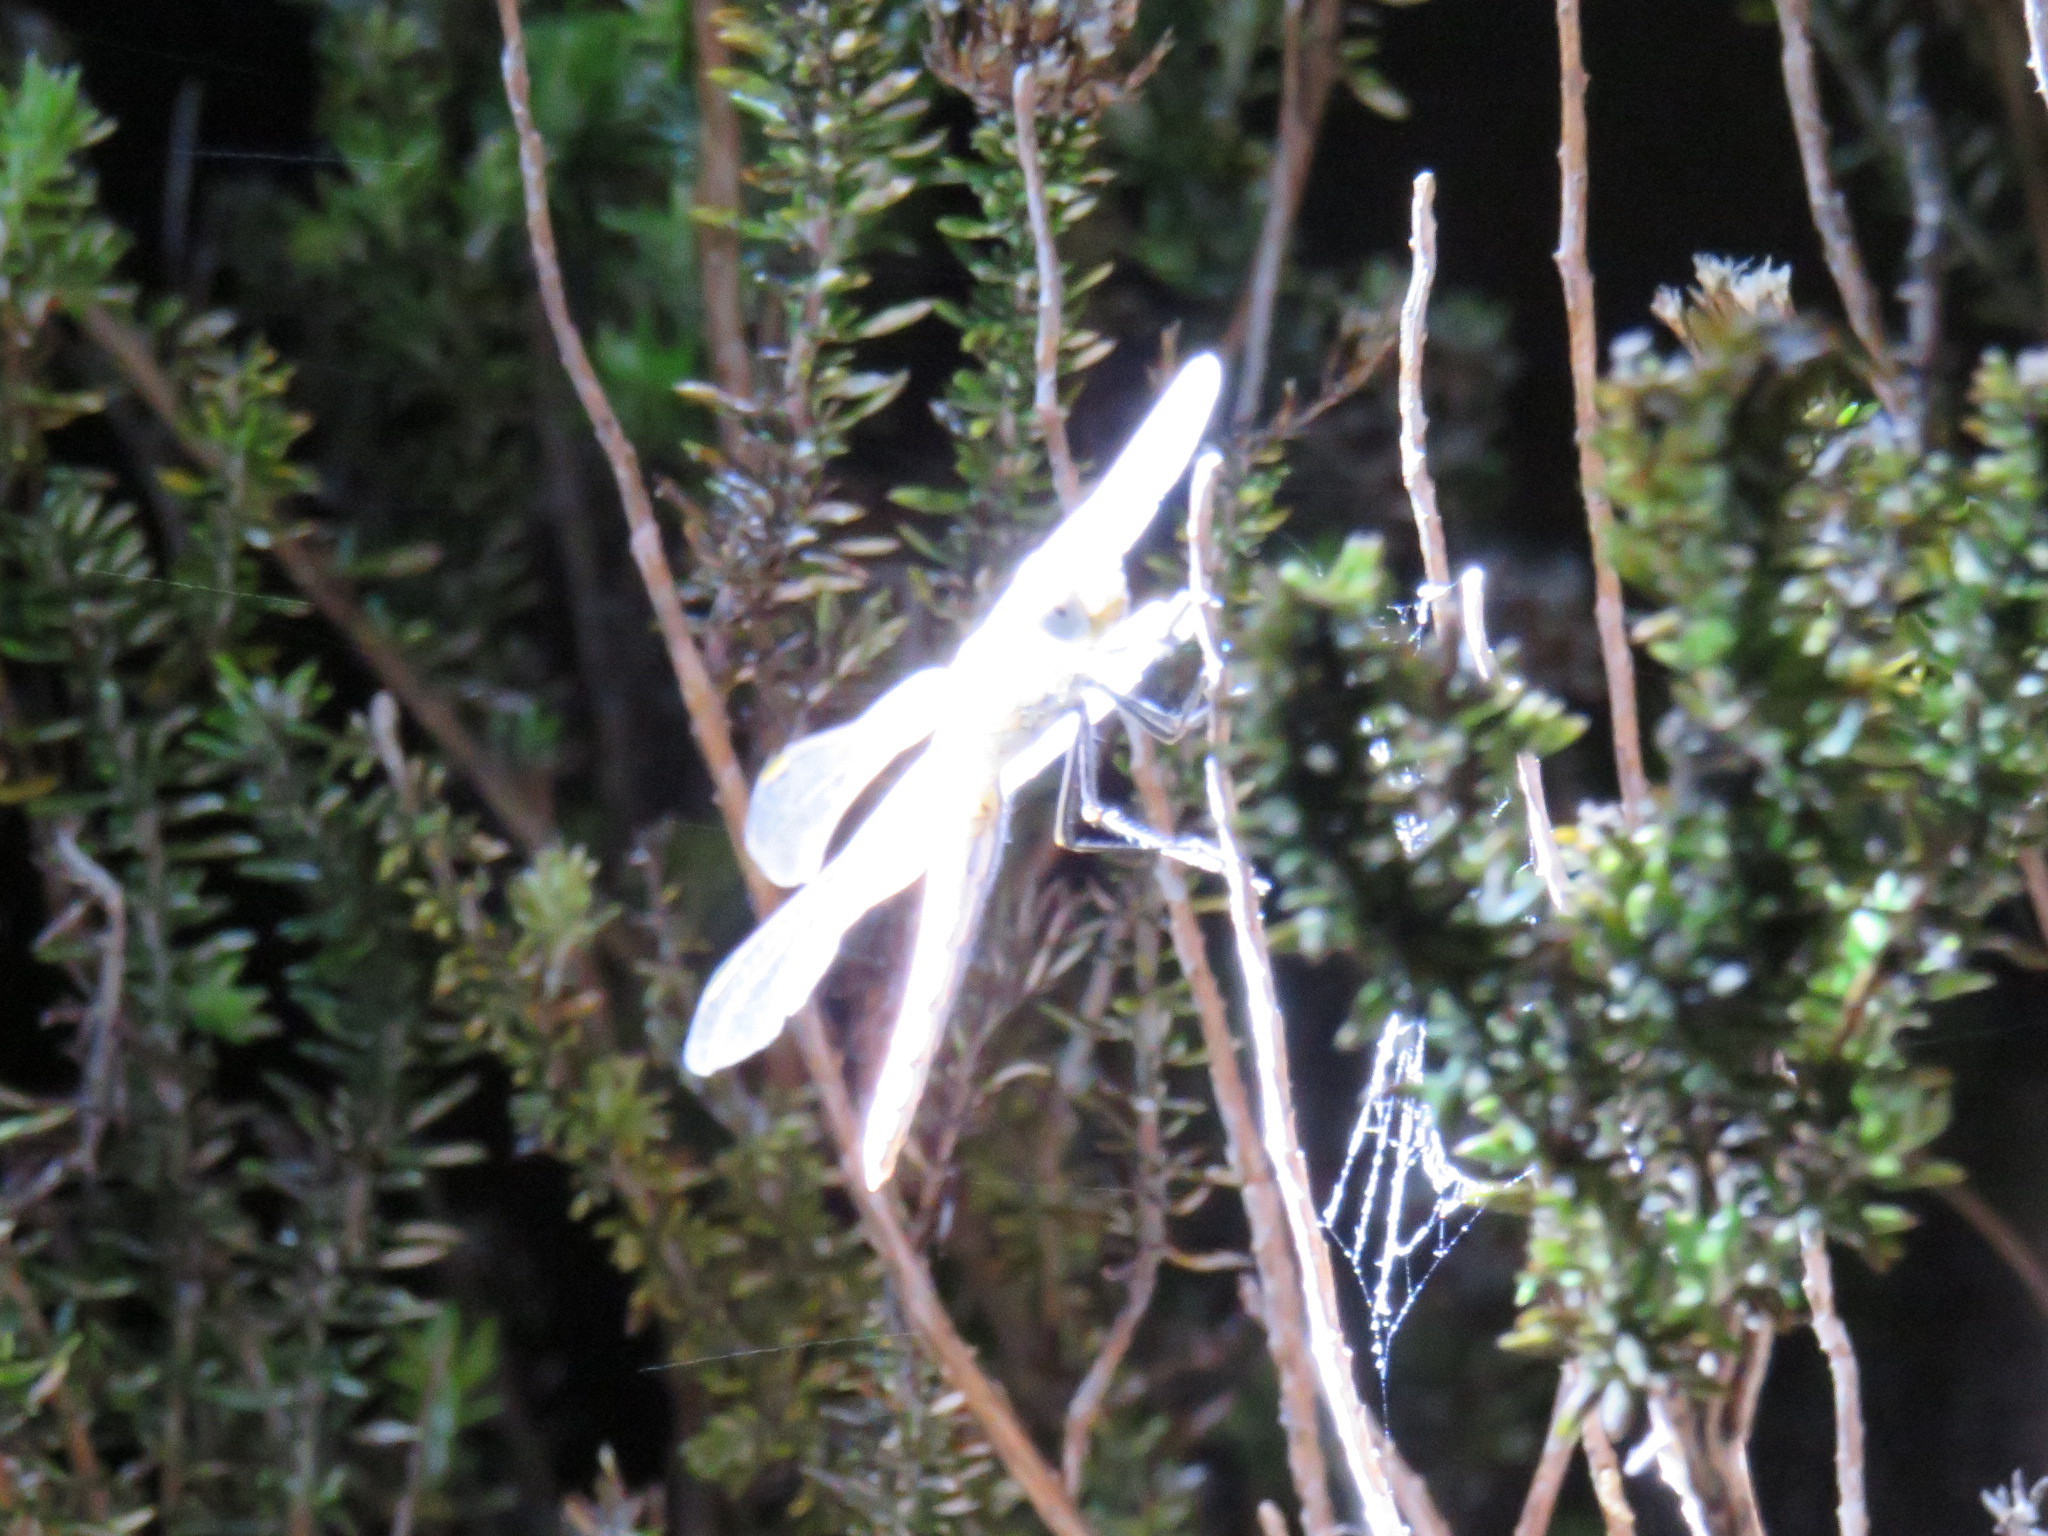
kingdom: Animalia
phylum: Arthropoda
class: Insecta
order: Odonata
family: Libellulidae
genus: Sympetrum
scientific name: Sympetrum fonscolombii
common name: Red-veined darter
